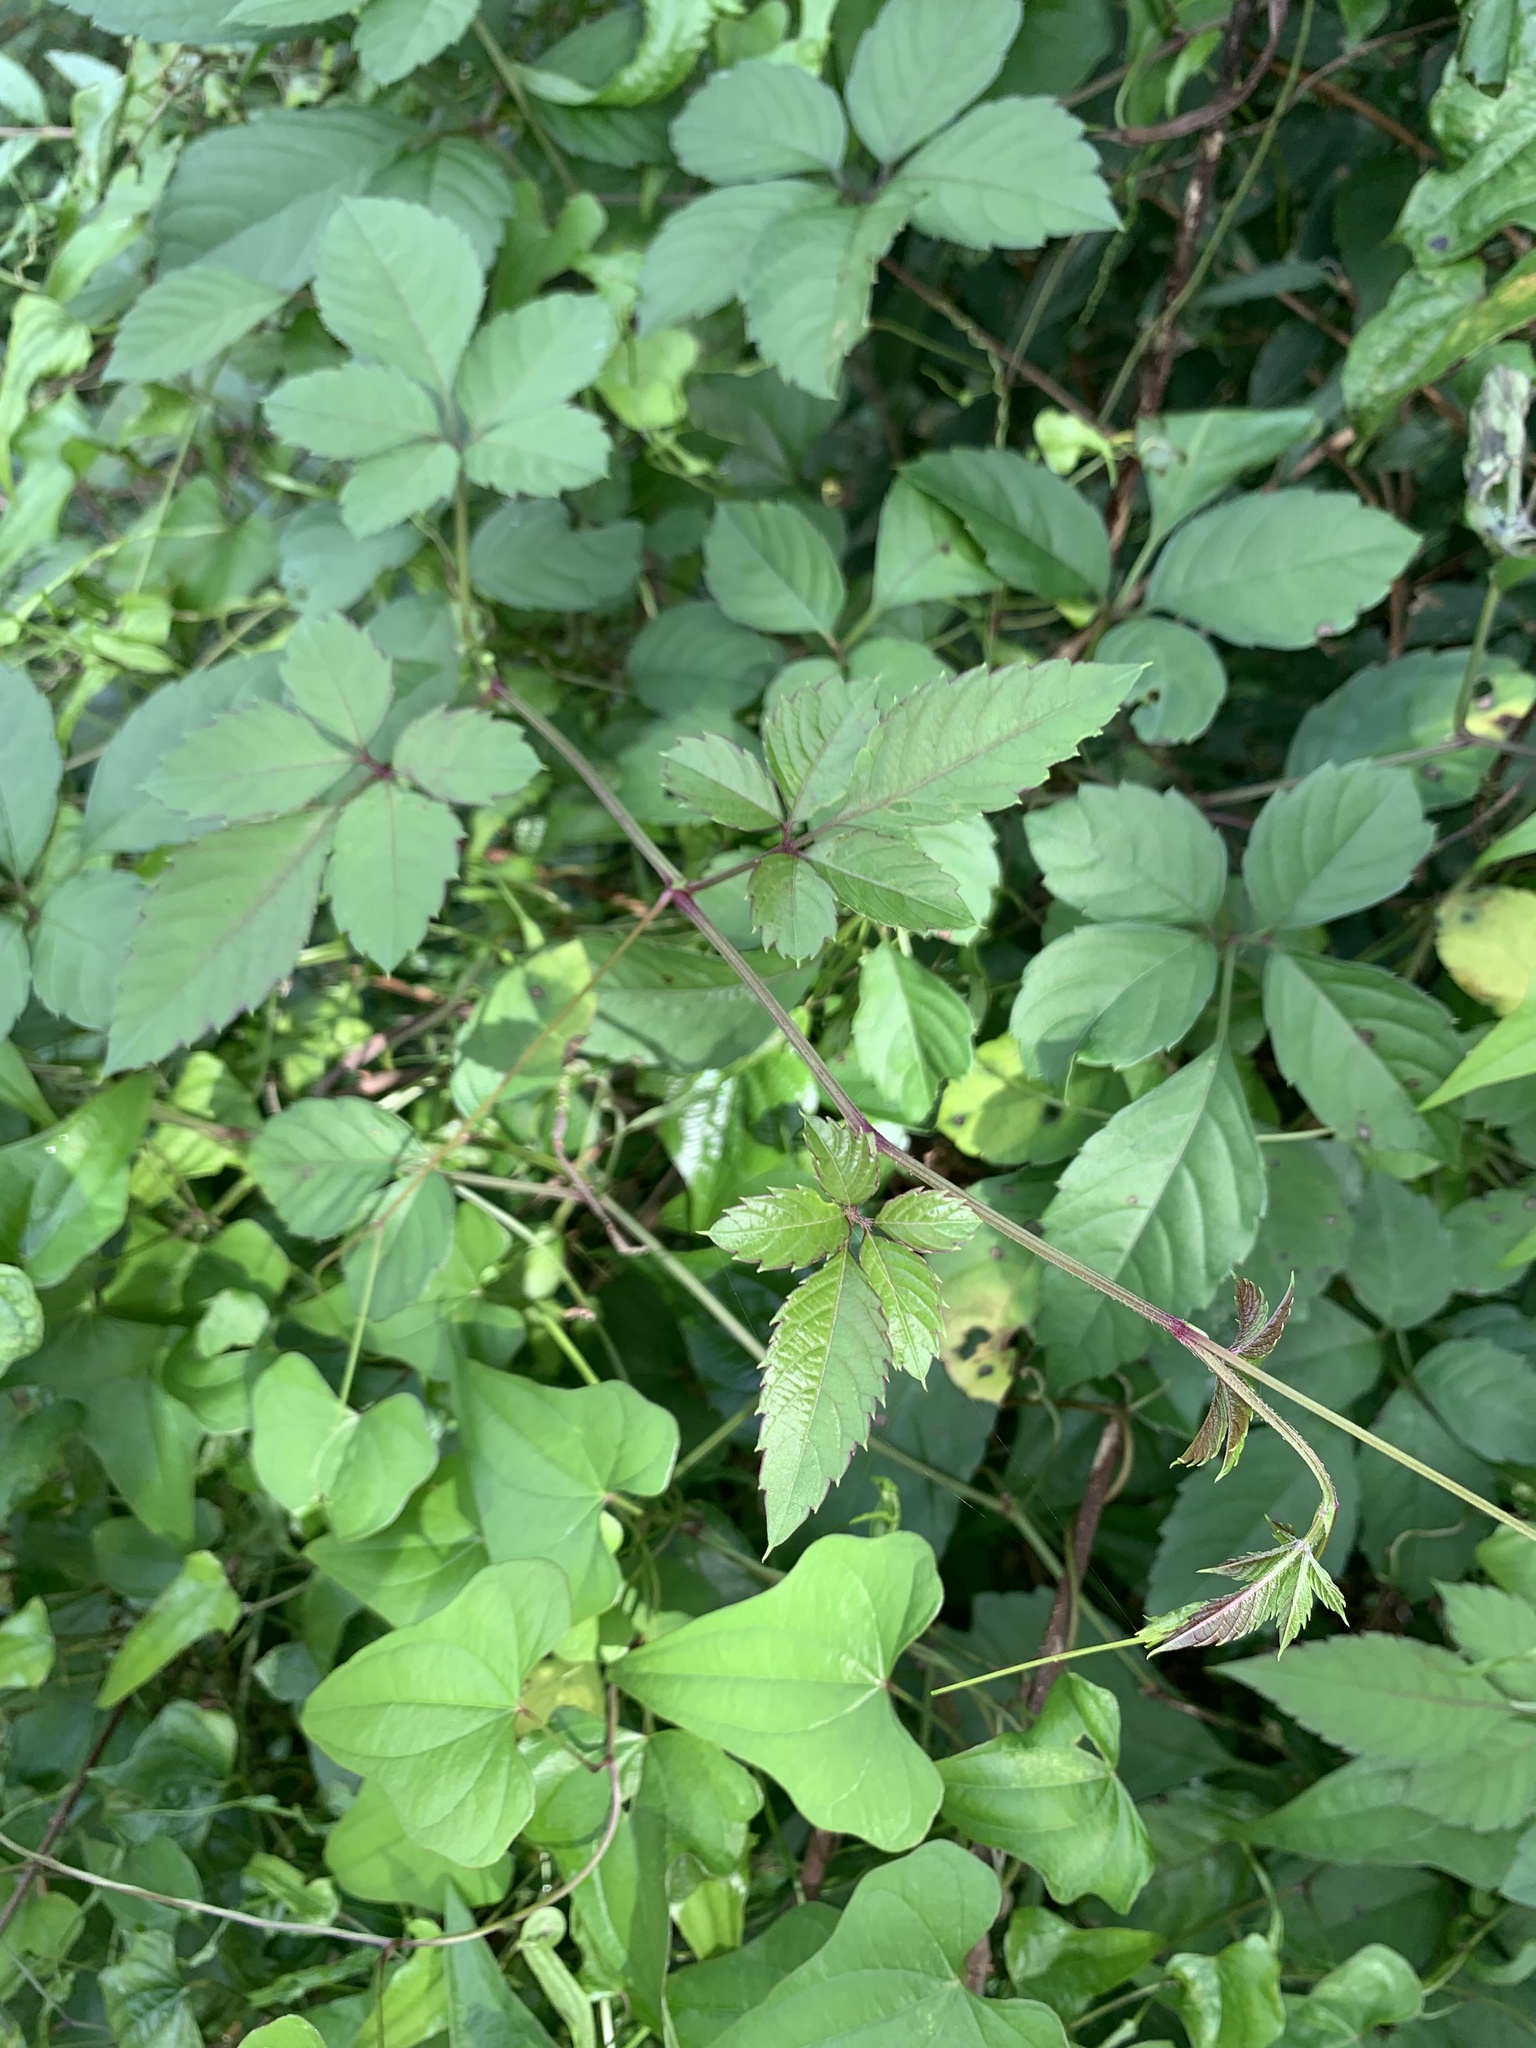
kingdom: Plantae
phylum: Tracheophyta
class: Magnoliopsida
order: Vitales
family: Vitaceae
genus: Causonis
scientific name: Causonis japonica
